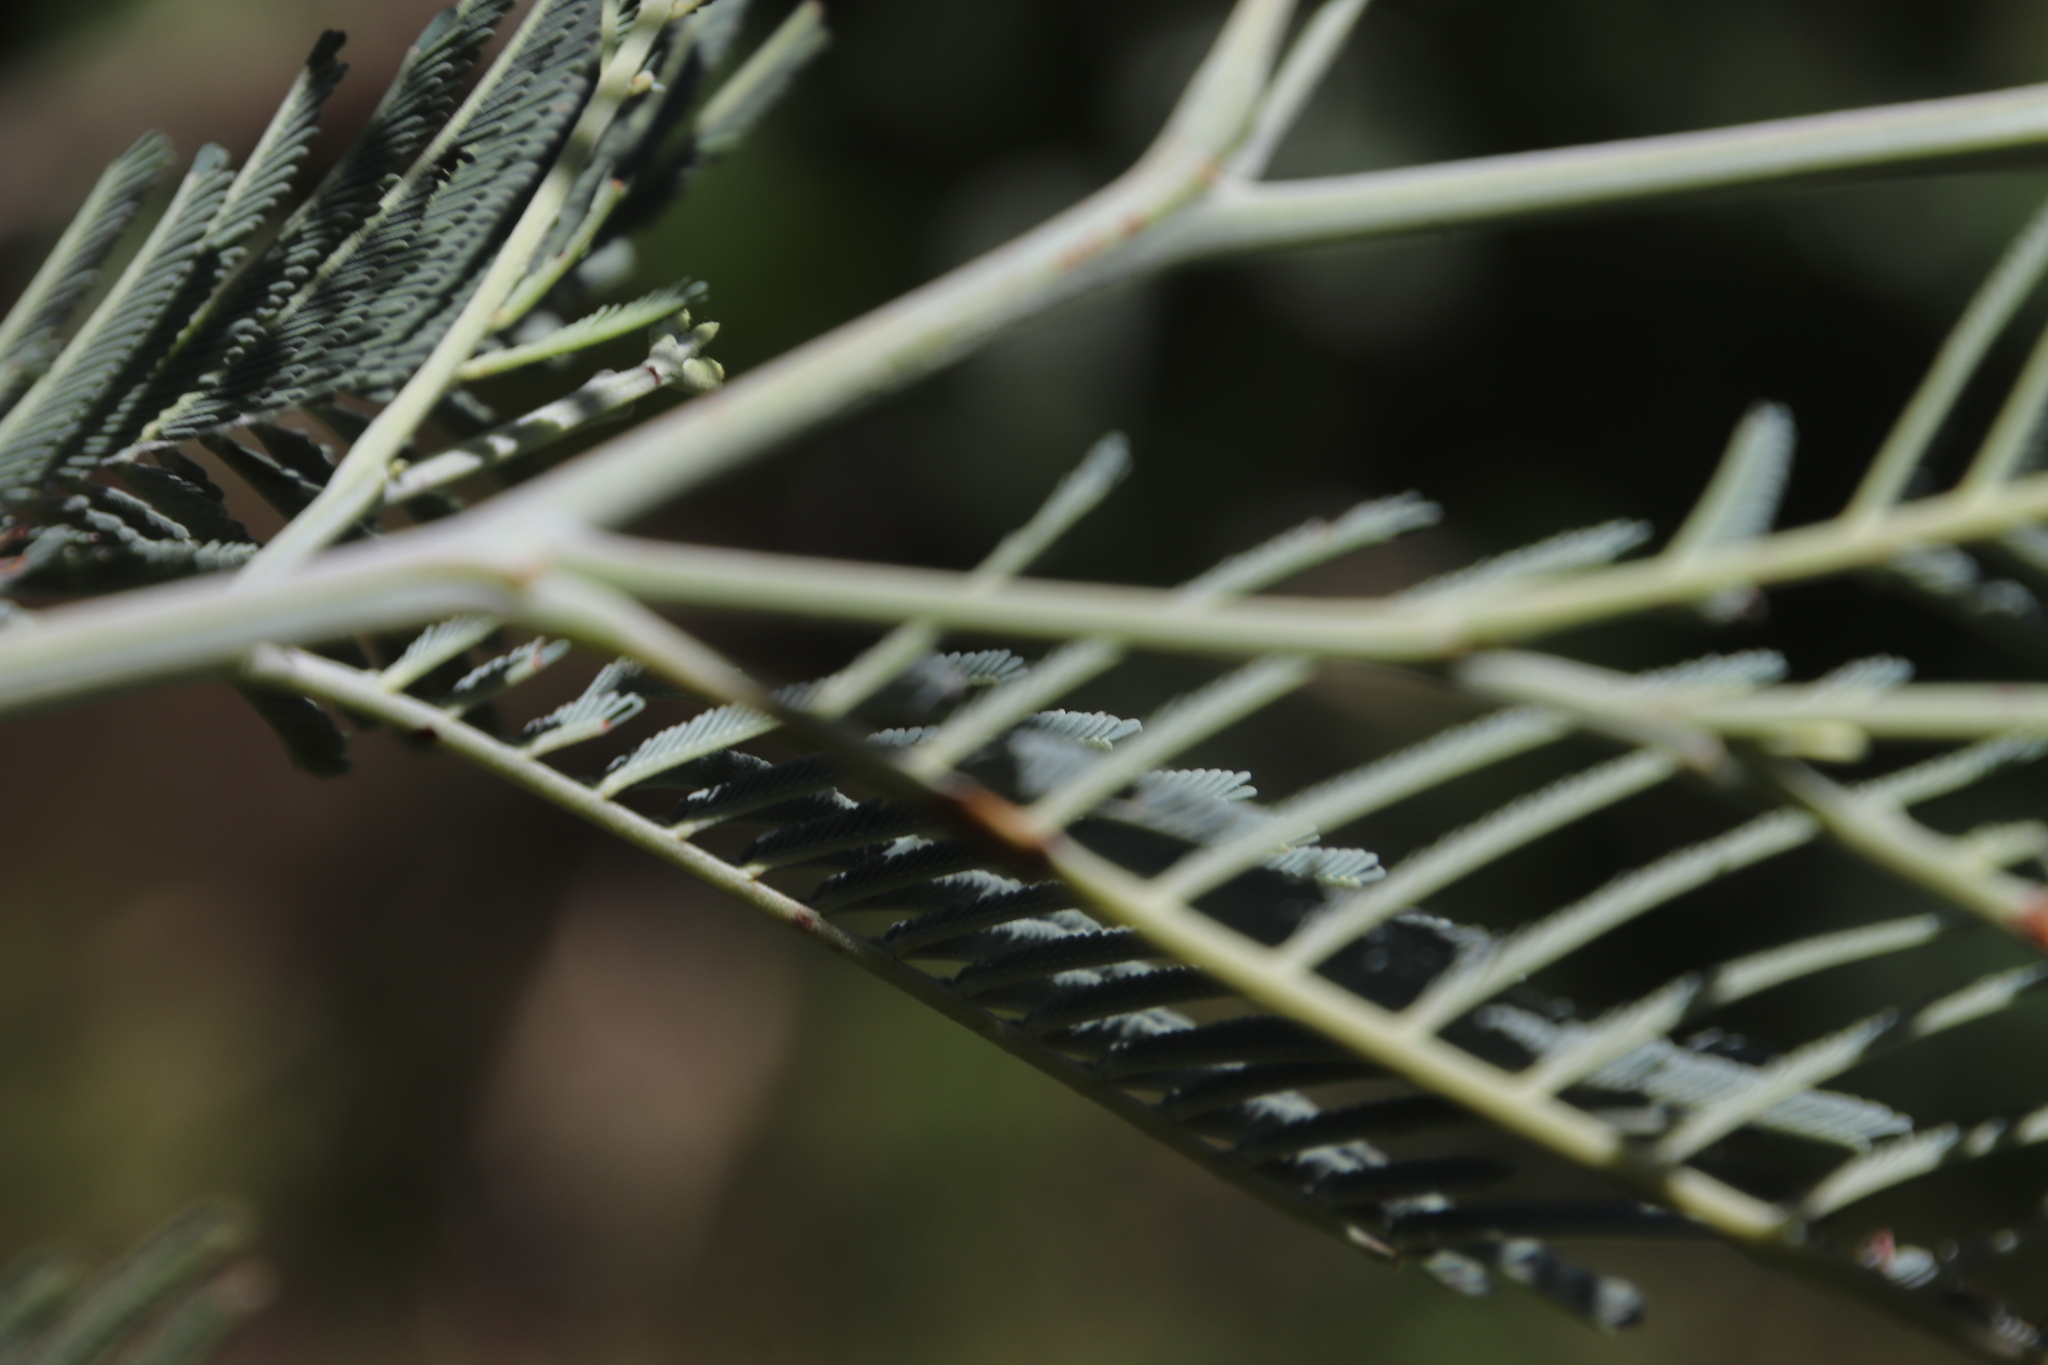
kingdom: Plantae
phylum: Tracheophyta
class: Magnoliopsida
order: Fabales
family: Fabaceae
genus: Acacia
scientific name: Acacia dealbata
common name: Silver wattle
